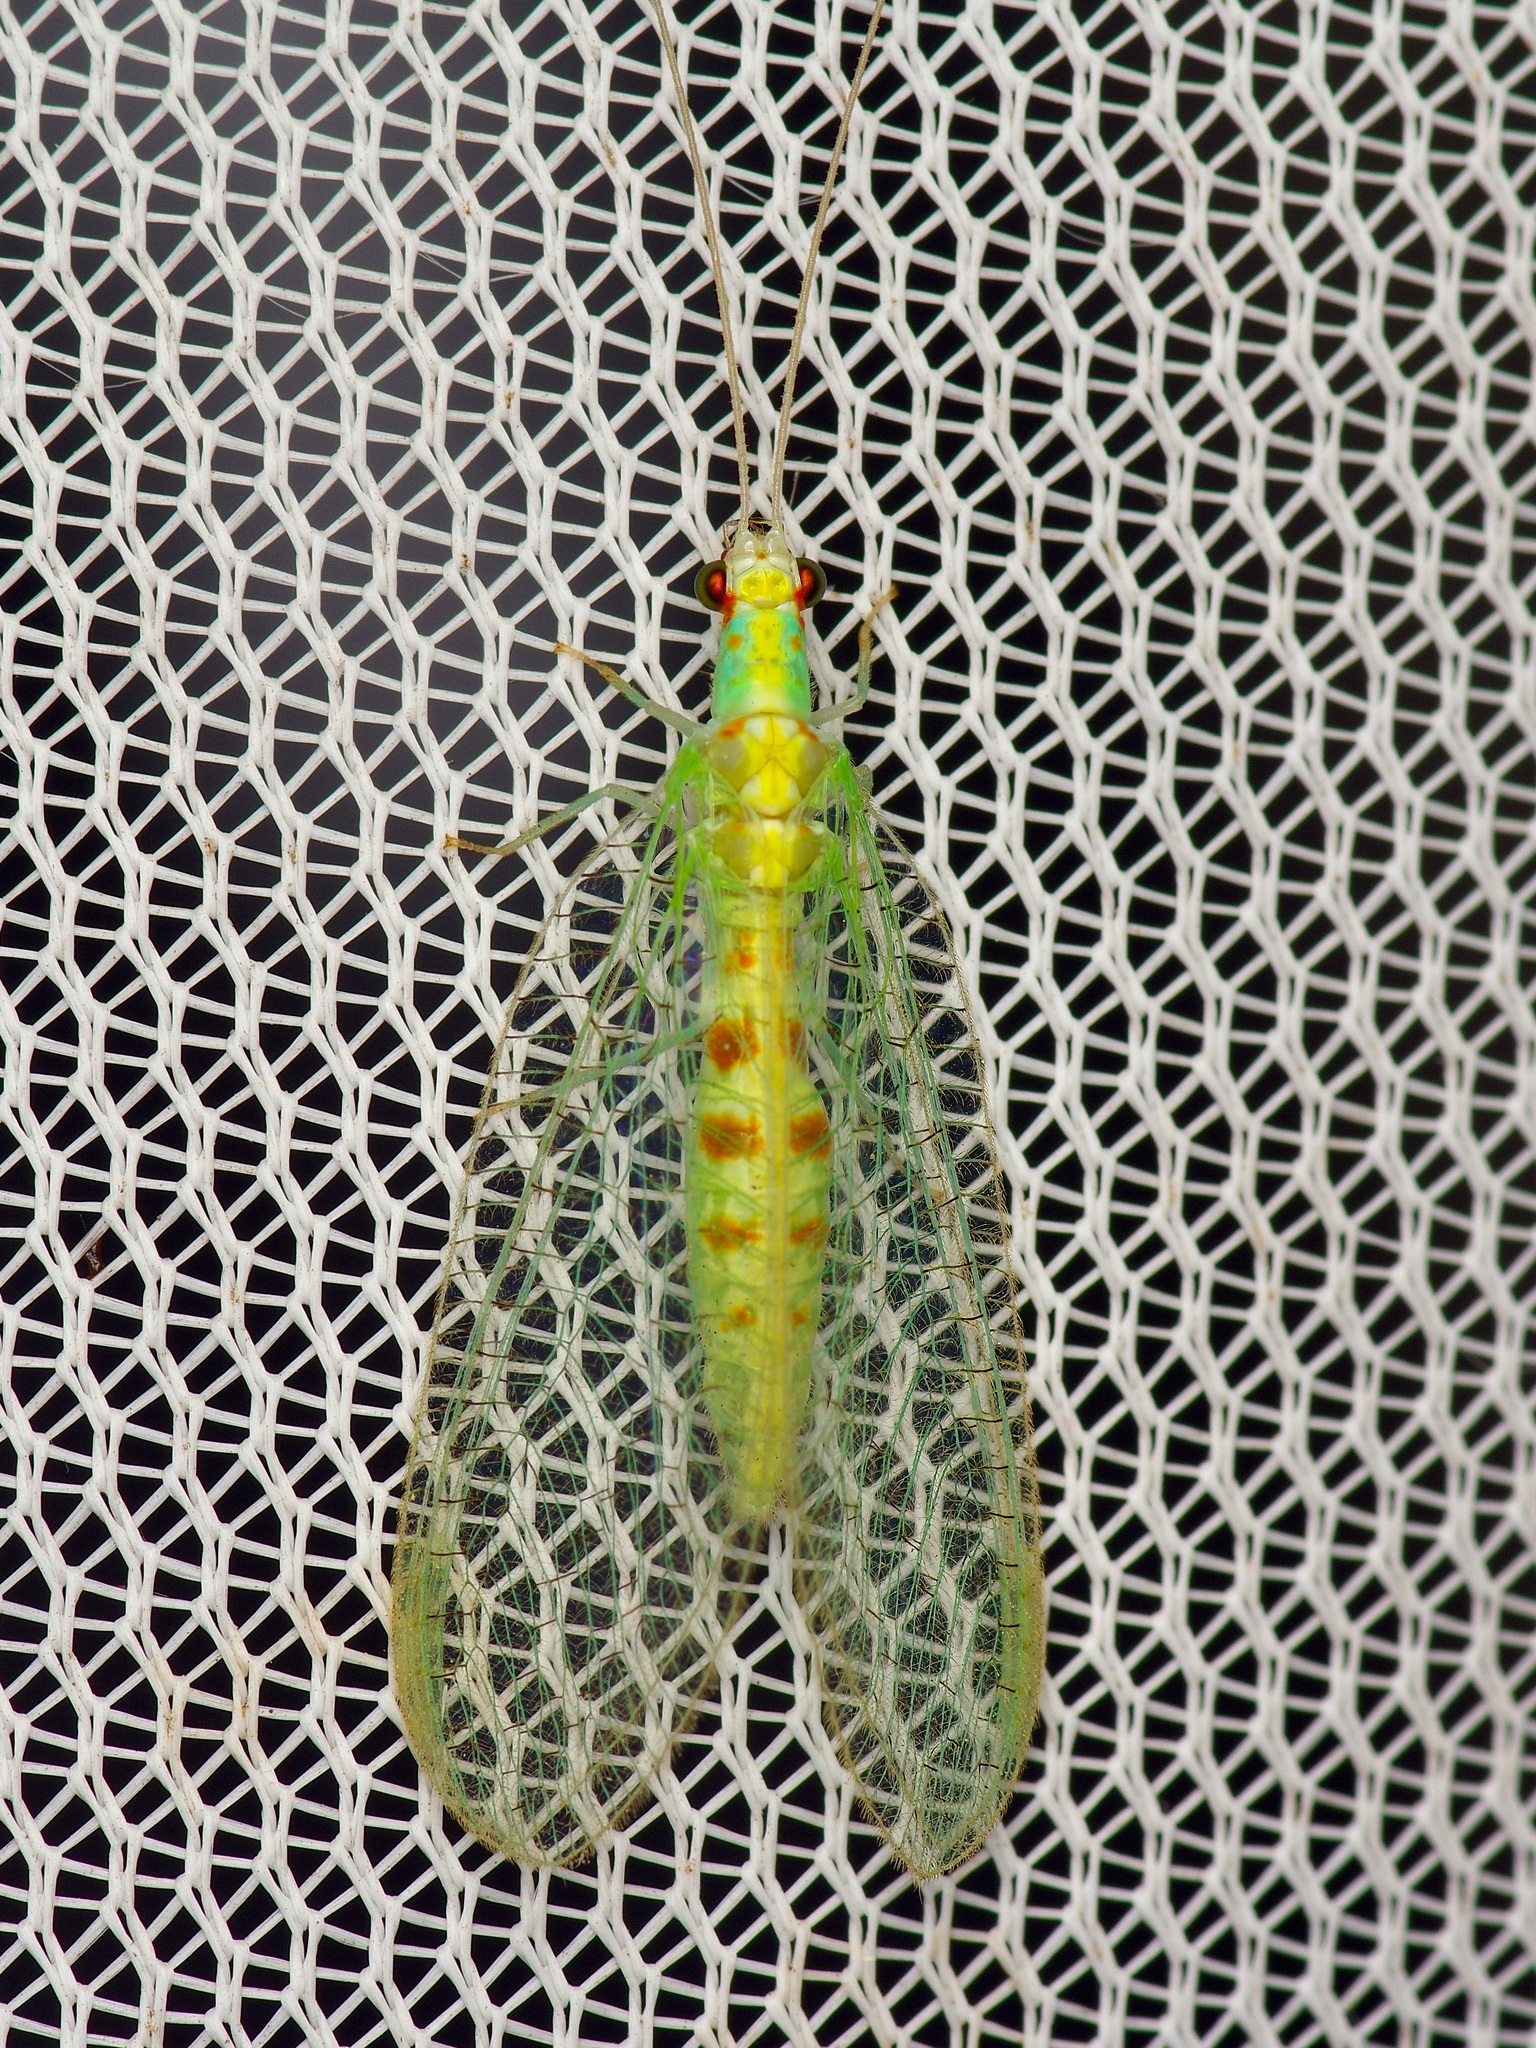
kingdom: Animalia
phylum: Arthropoda
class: Insecta
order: Neuroptera
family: Chrysopidae
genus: Chrysopa
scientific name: Chrysopa quadripunctata
